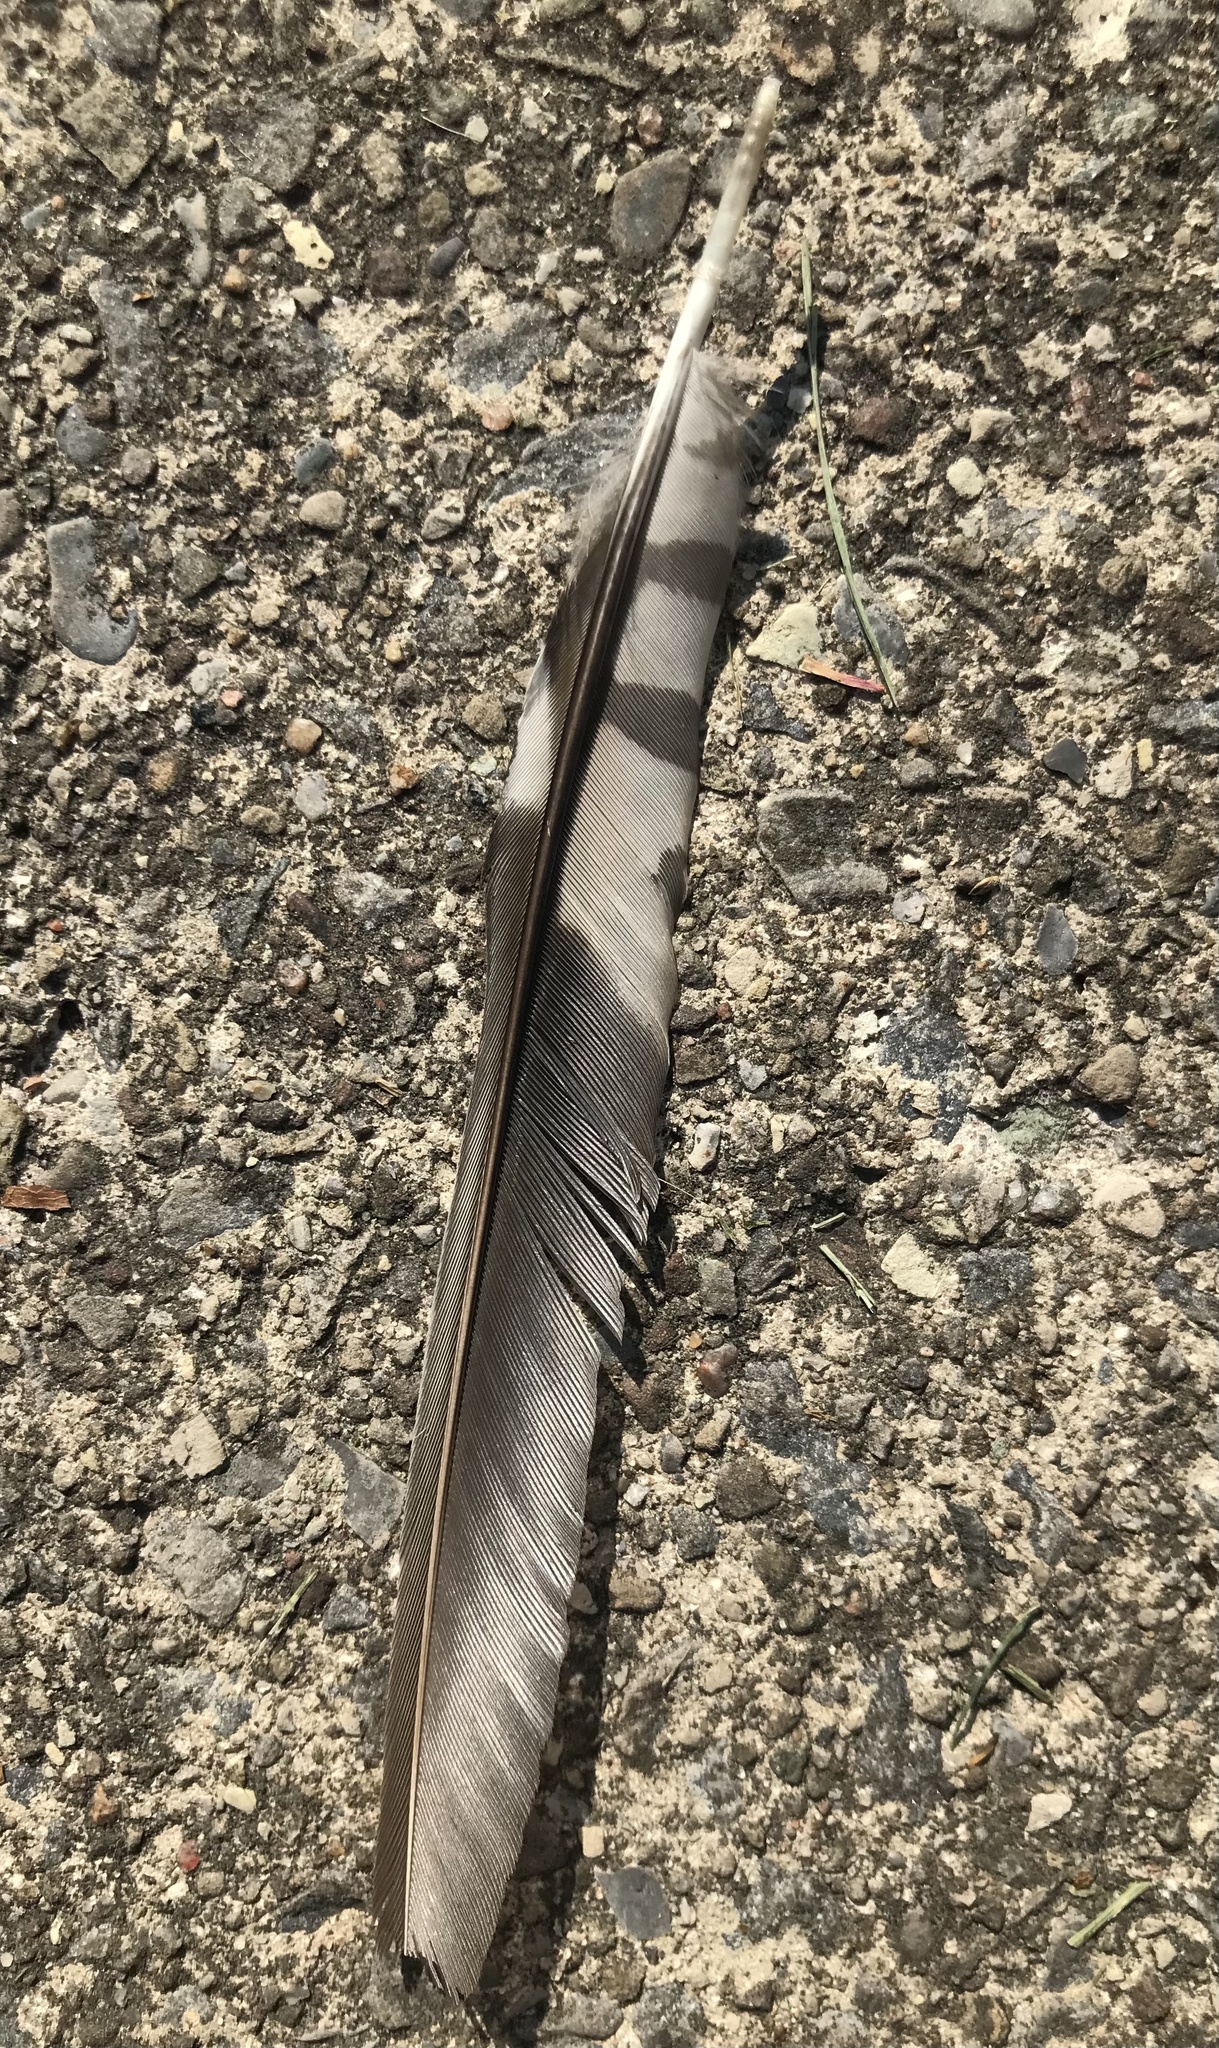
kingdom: Animalia
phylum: Chordata
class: Aves
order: Piciformes
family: Picidae
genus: Melanerpes
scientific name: Melanerpes carolinus
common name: Red-bellied woodpecker
